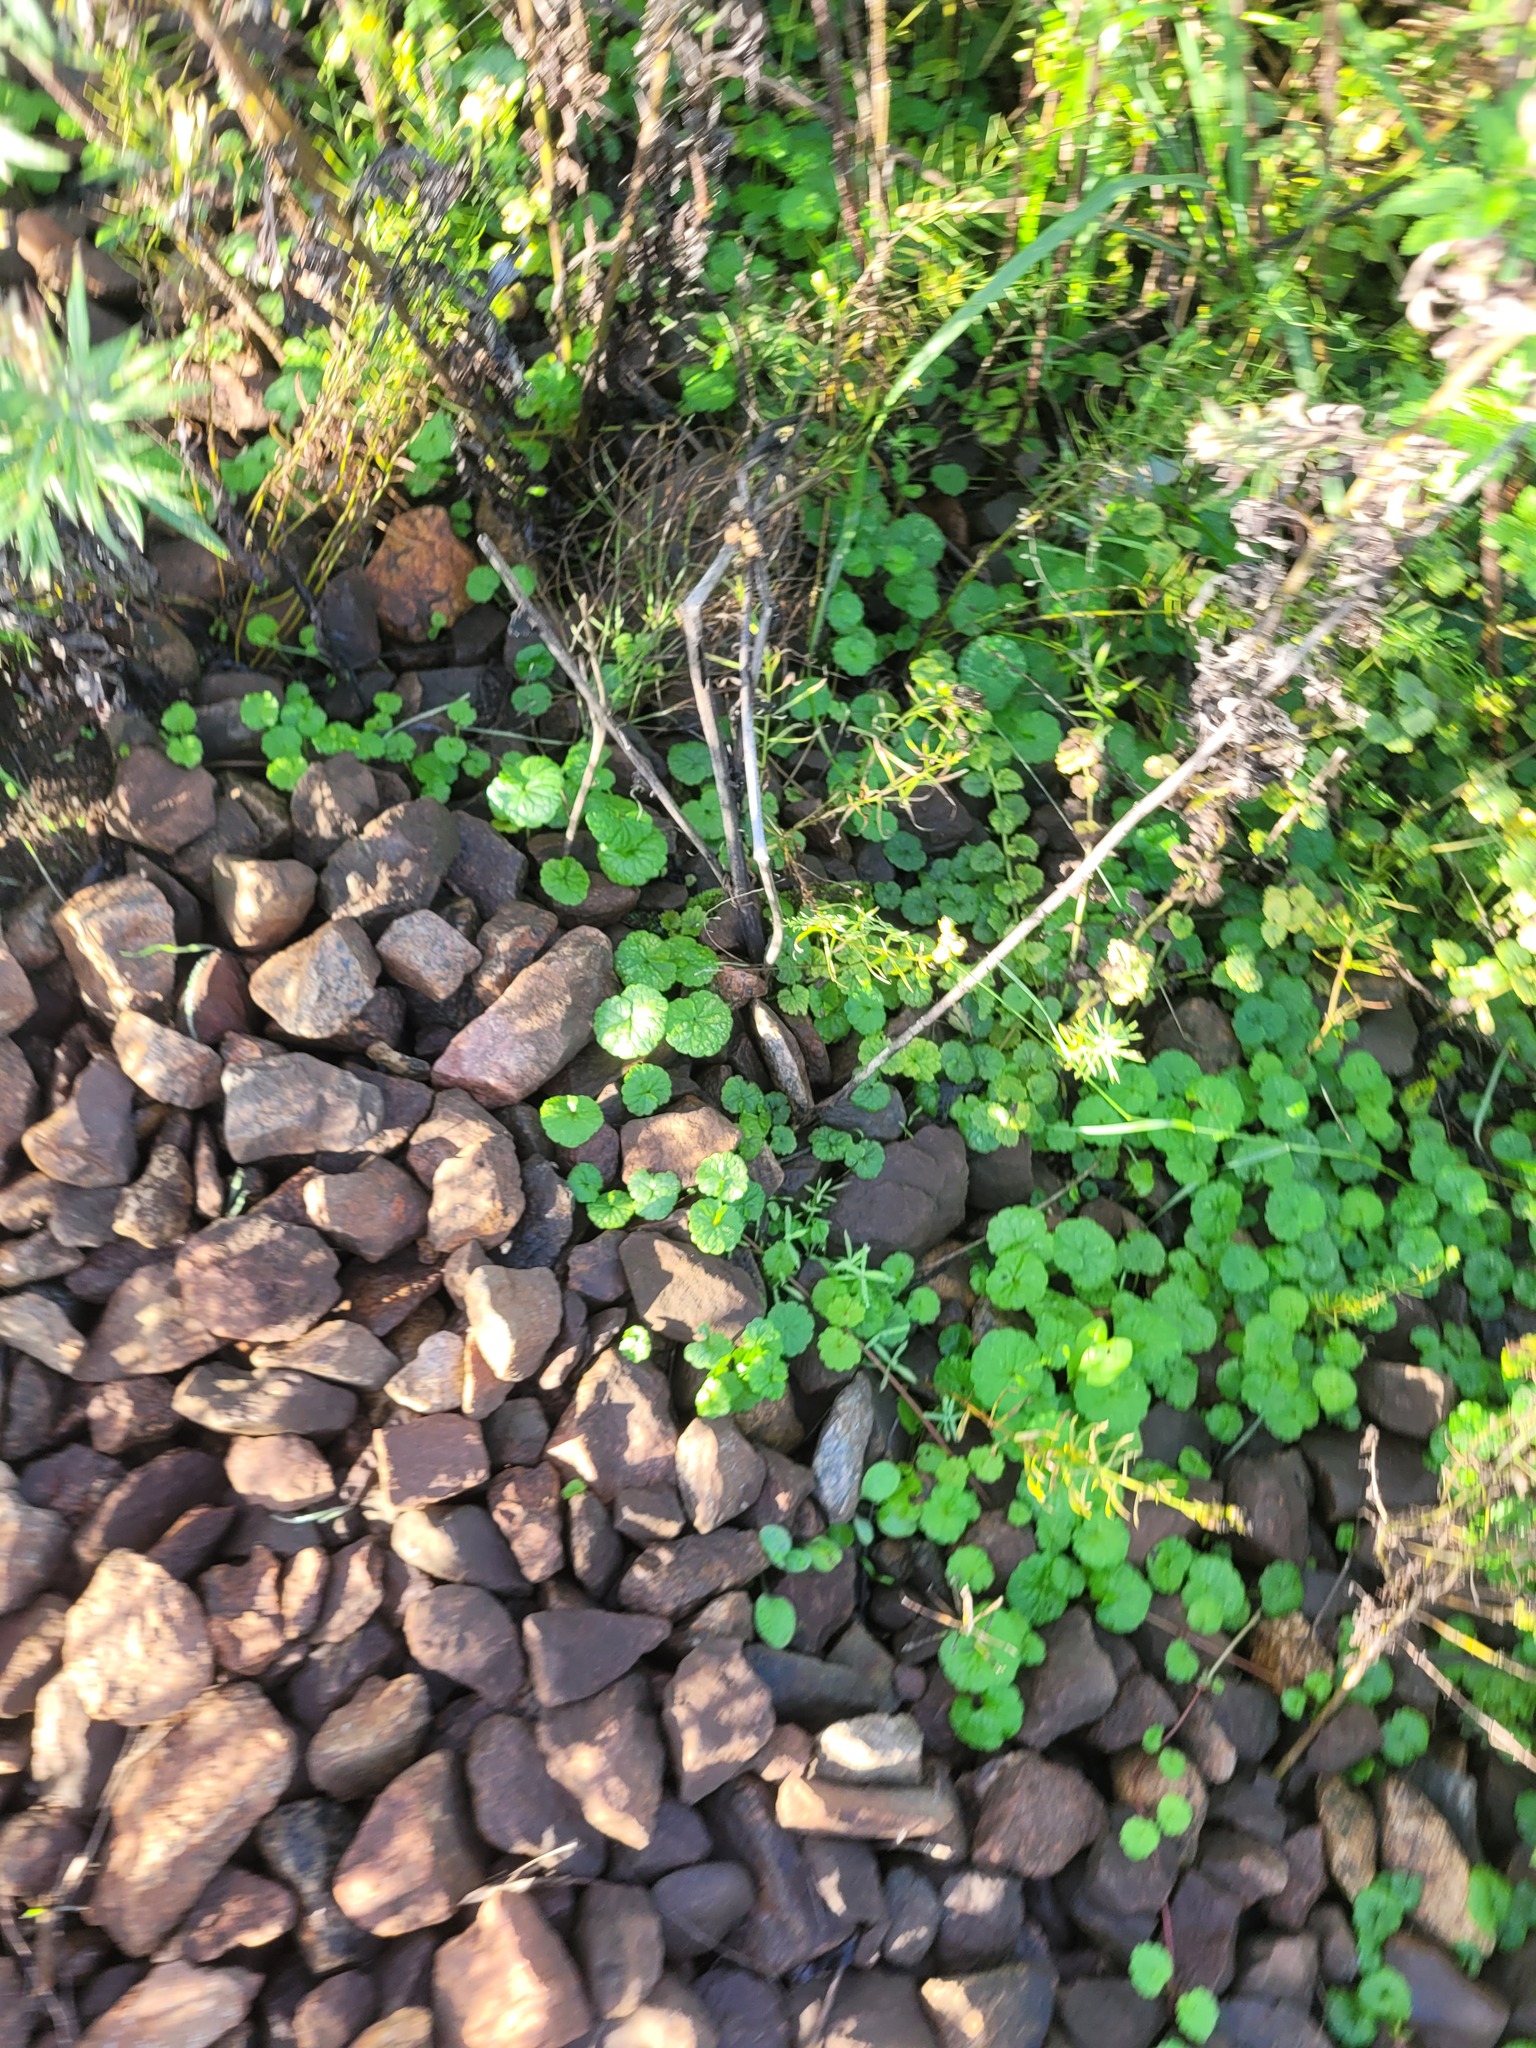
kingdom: Plantae
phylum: Tracheophyta
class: Magnoliopsida
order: Lamiales
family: Lamiaceae
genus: Glechoma
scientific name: Glechoma hederacea
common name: Ground ivy
